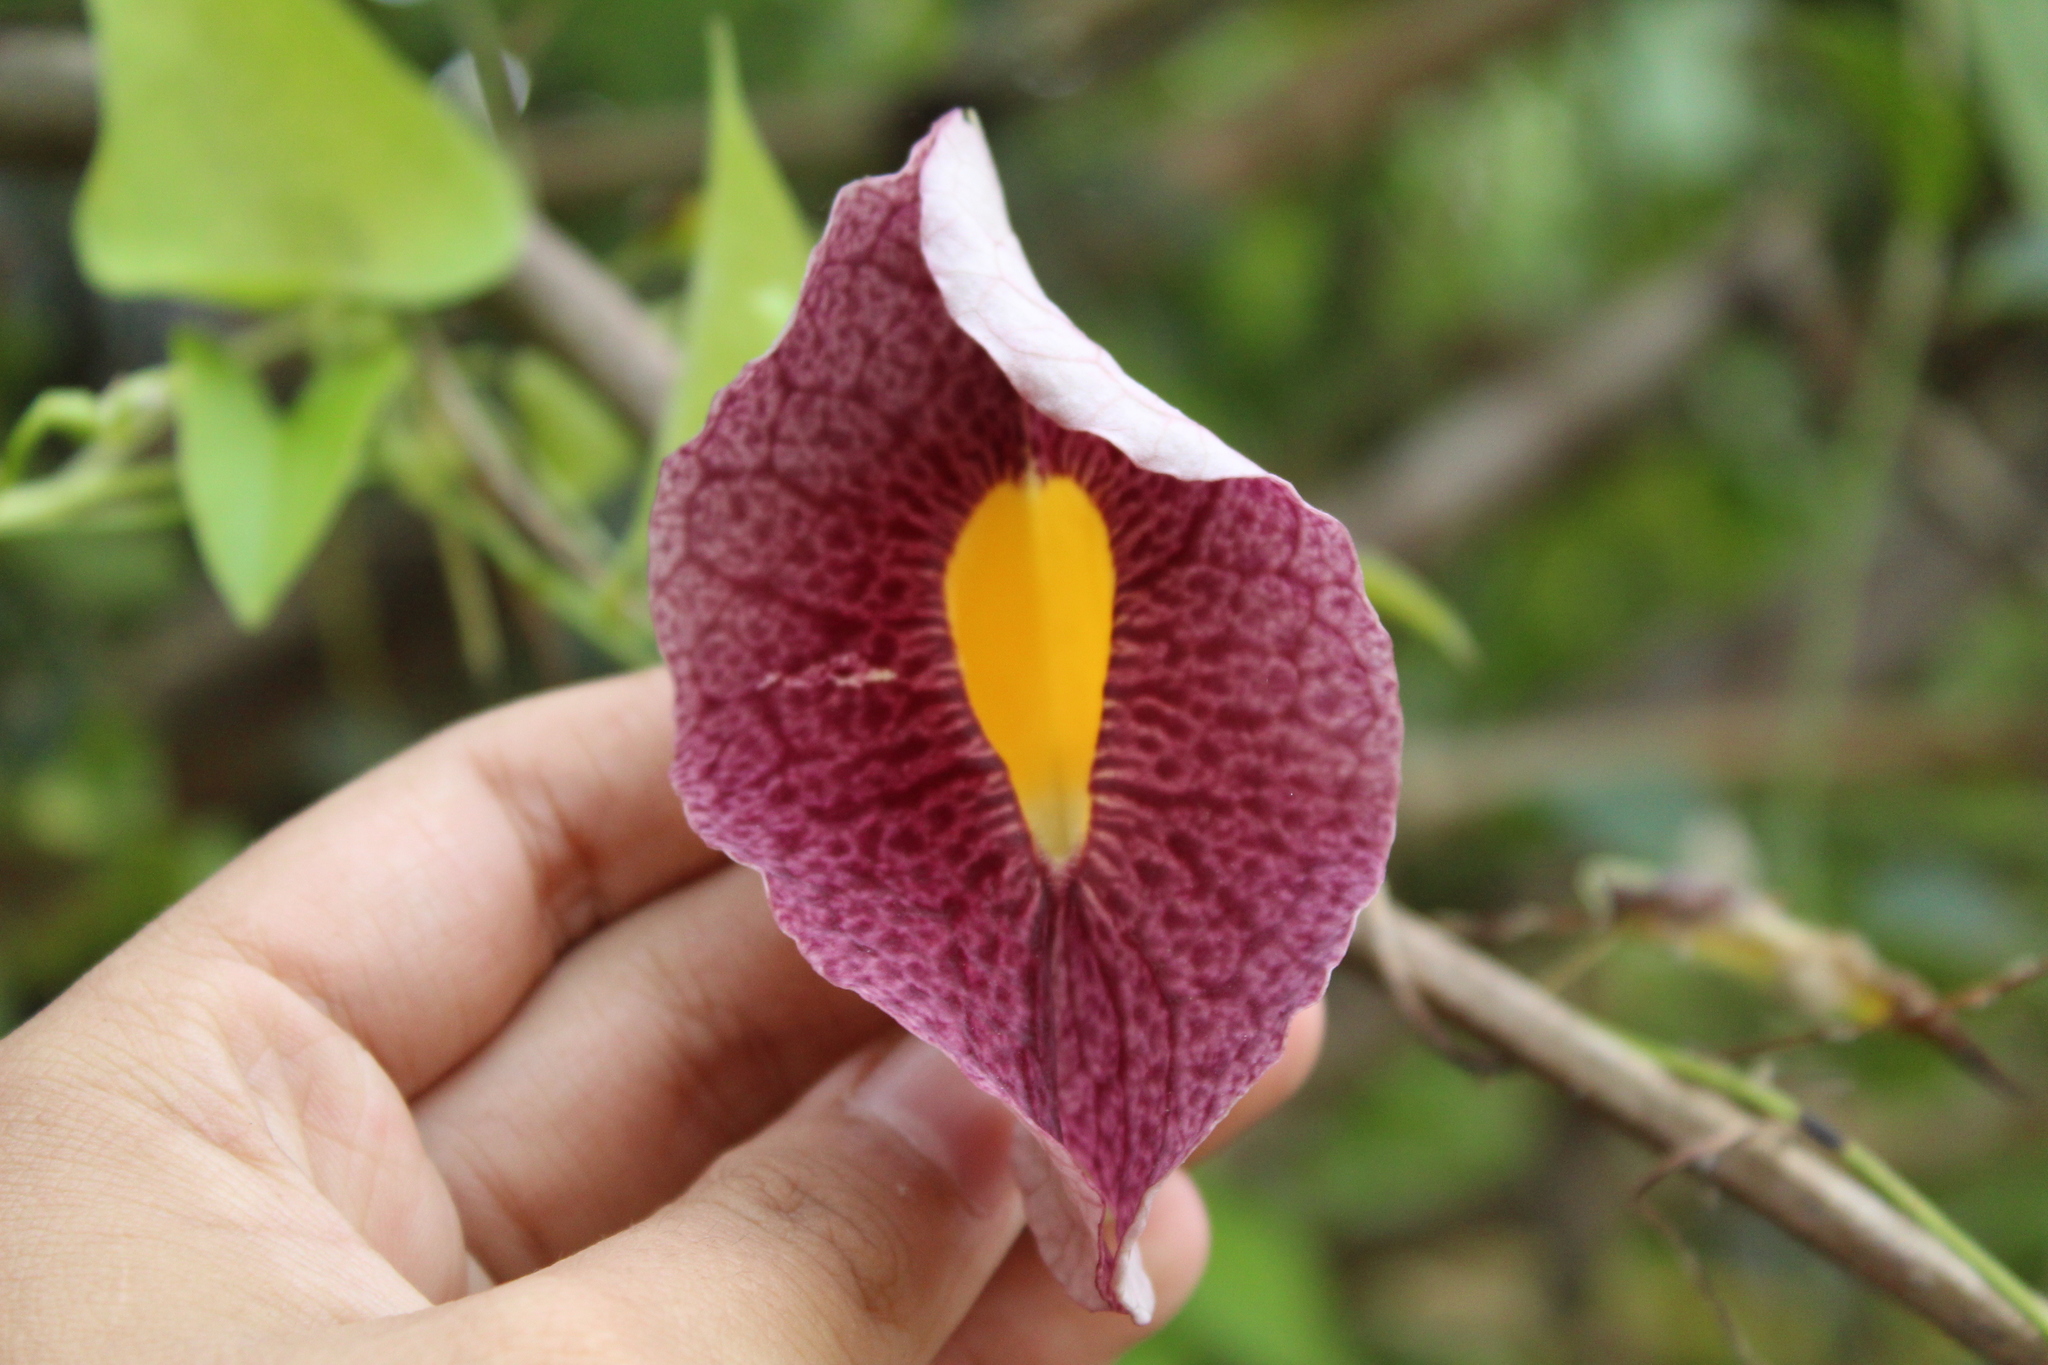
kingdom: Plantae
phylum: Tracheophyta
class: Magnoliopsida
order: Piperales
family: Aristolochiaceae
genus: Aristolochia
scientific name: Aristolochia odoratissima
